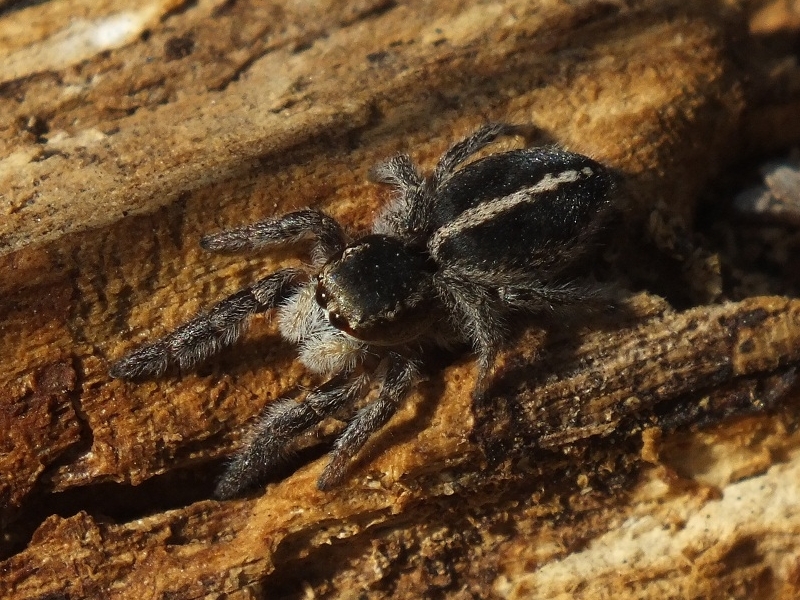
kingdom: Animalia
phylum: Arthropoda
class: Arachnida
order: Araneae
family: Salticidae
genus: Pellenes
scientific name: Pellenes seriatus
